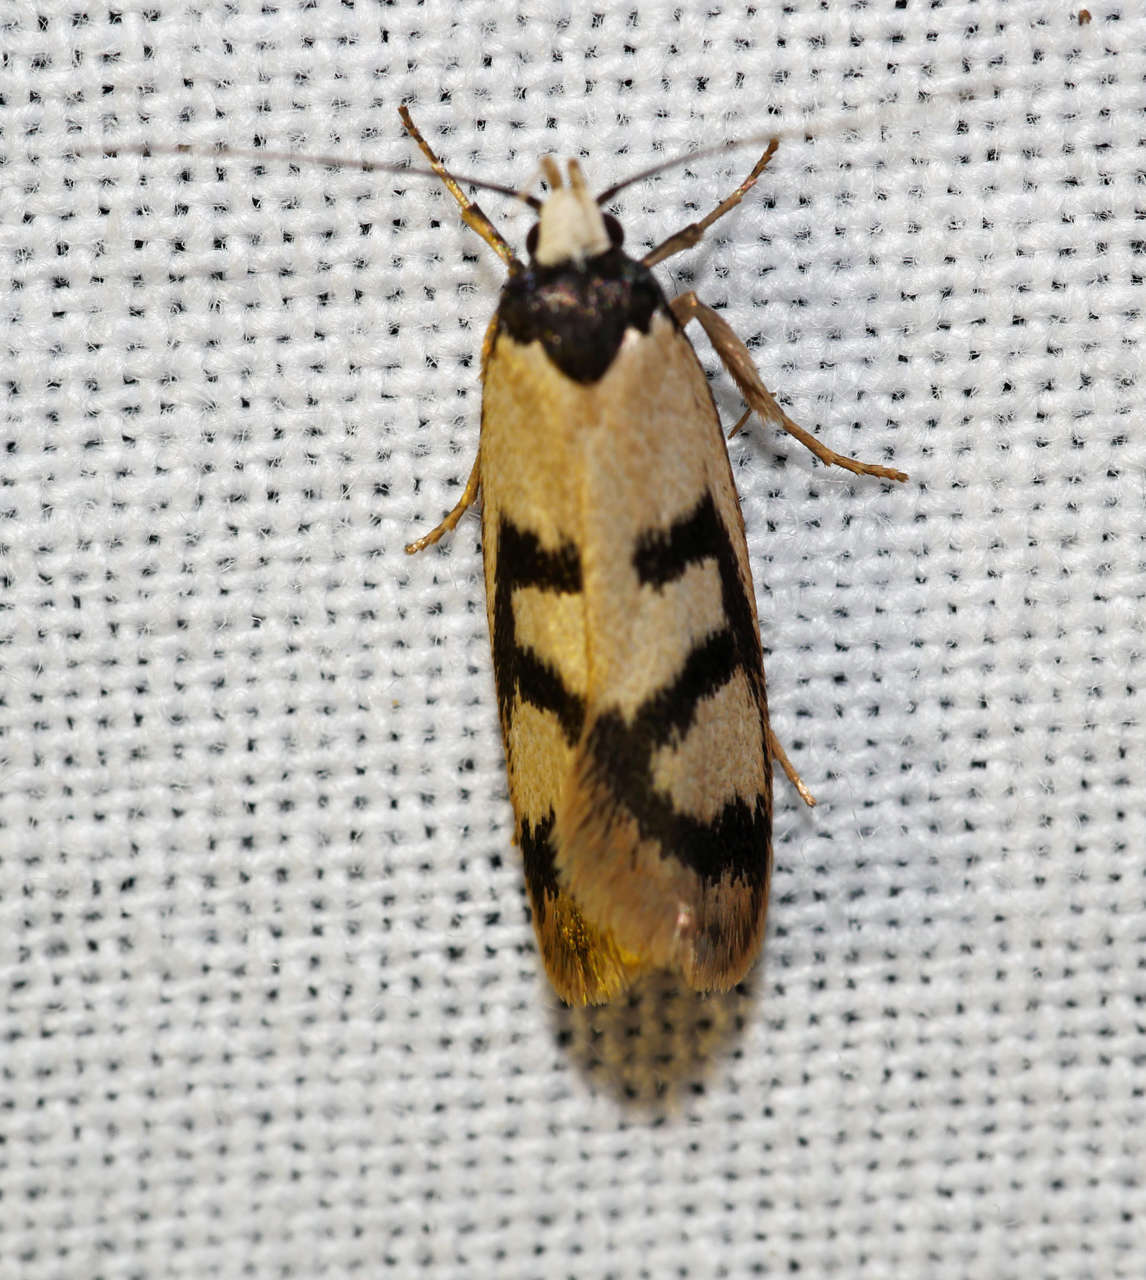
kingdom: Animalia
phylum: Arthropoda
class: Insecta
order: Lepidoptera
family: Oecophoridae
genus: Eulechria
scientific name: Eulechria sigmophora
